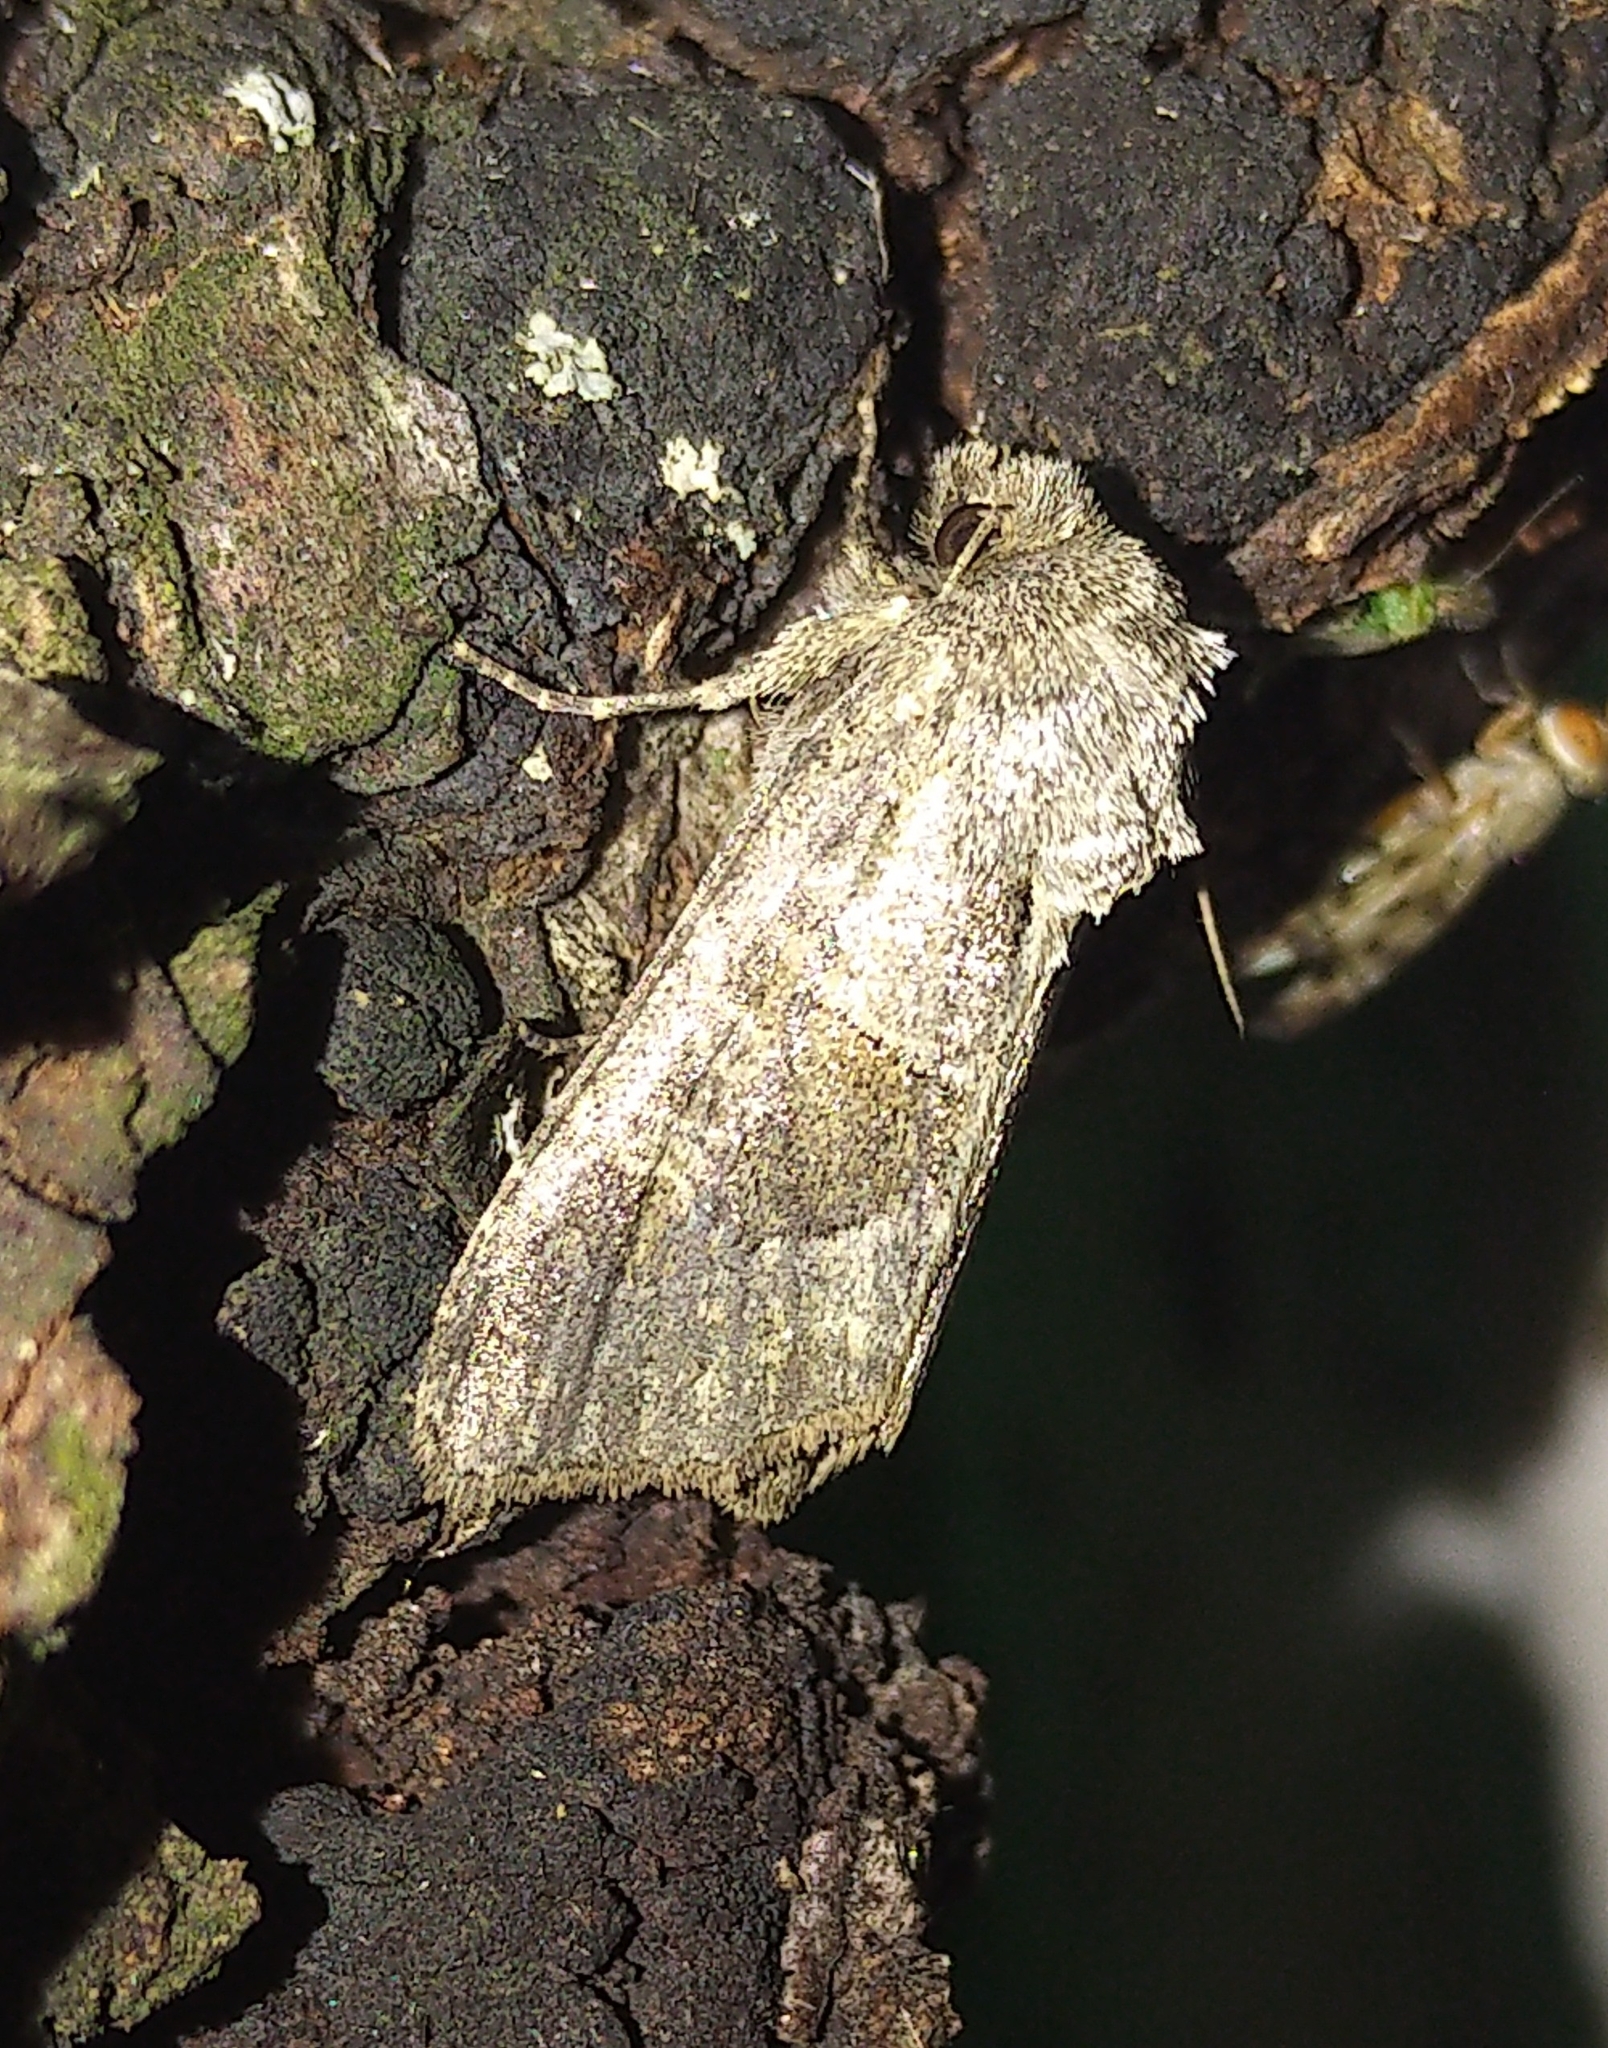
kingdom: Animalia
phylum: Arthropoda
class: Insecta
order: Lepidoptera
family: Noctuidae
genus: Oligia
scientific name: Oligia obtusa
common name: Obtuse sedge borer
